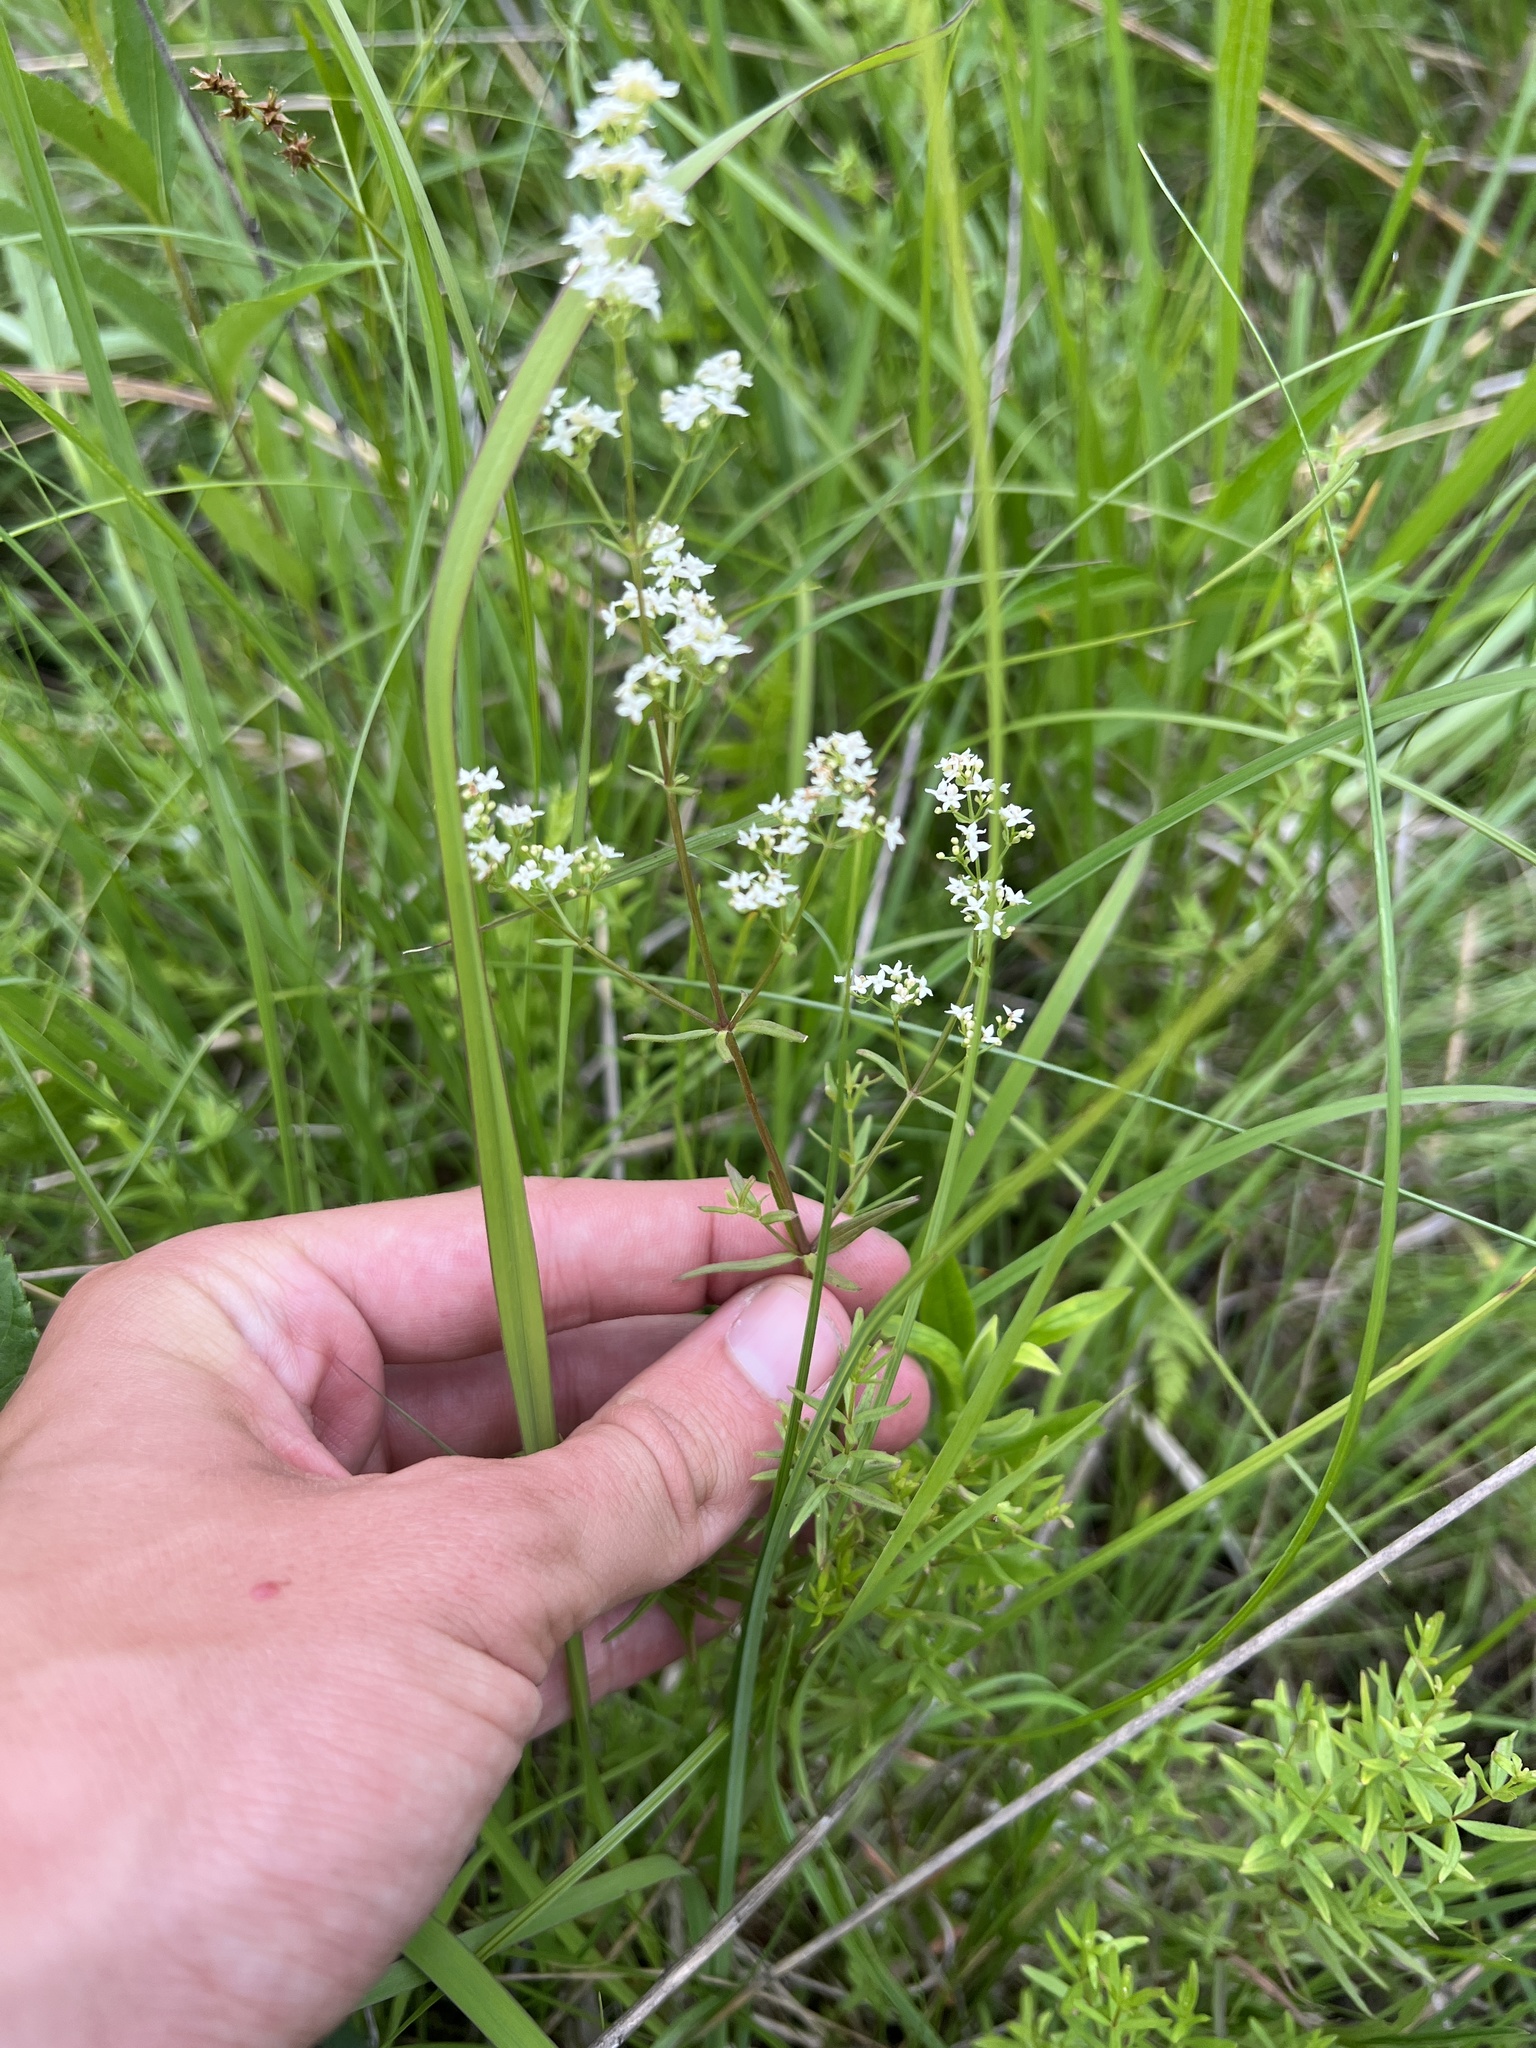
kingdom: Plantae
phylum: Tracheophyta
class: Magnoliopsida
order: Gentianales
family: Rubiaceae
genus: Galium
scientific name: Galium boreale
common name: Northern bedstraw
